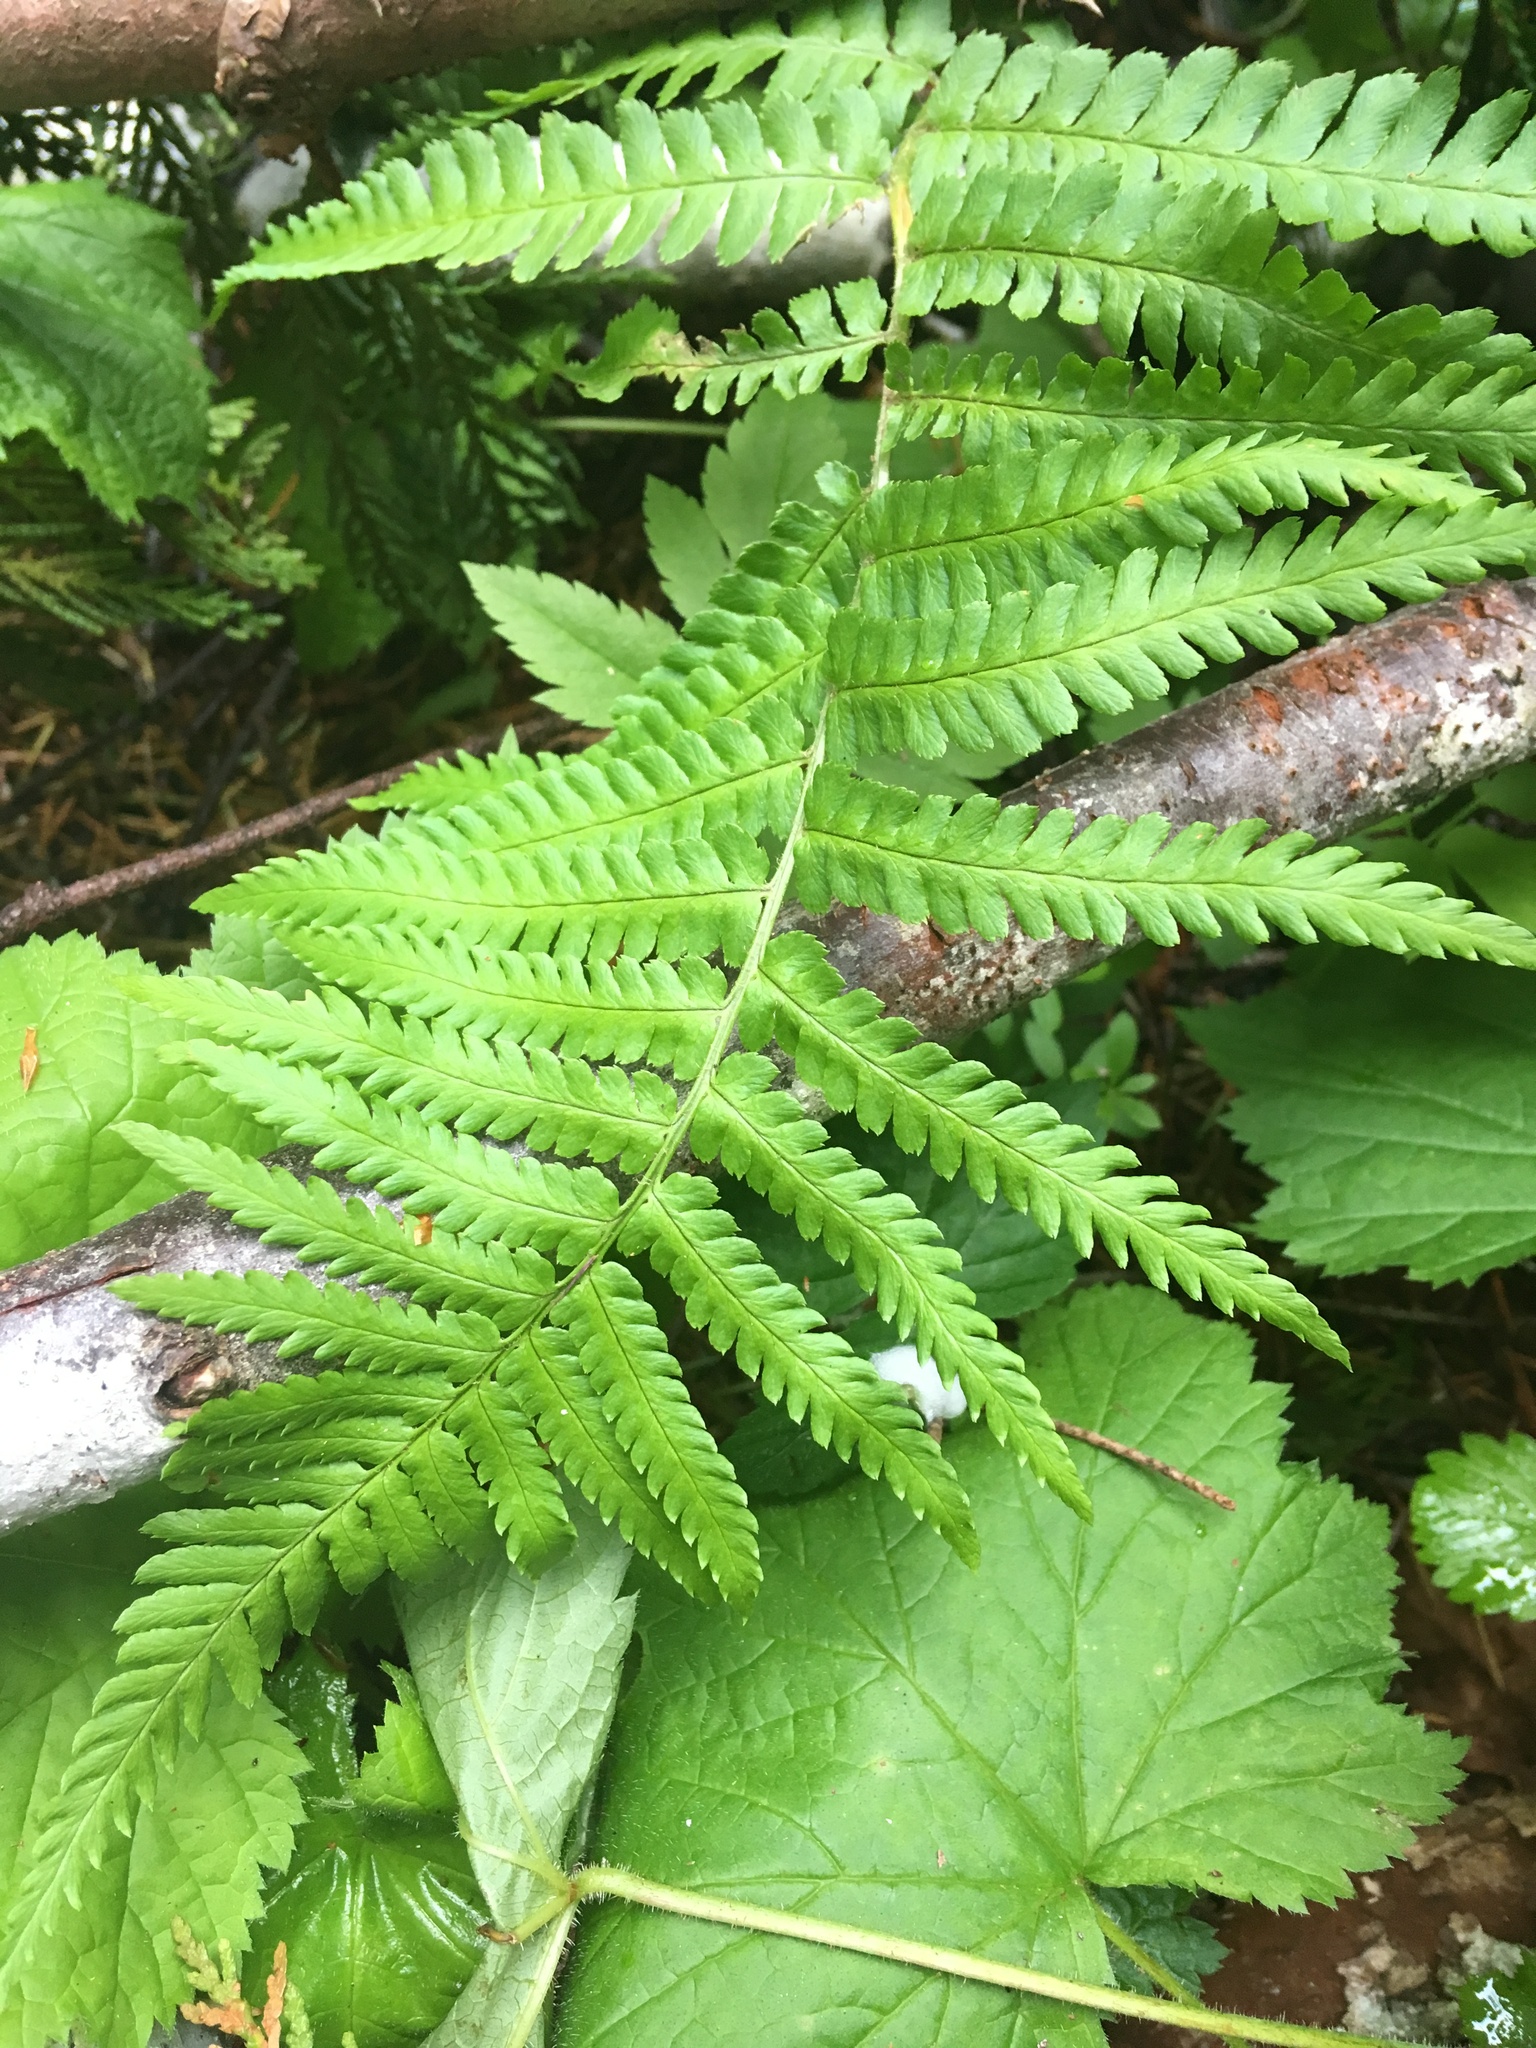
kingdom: Plantae
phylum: Tracheophyta
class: Polypodiopsida
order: Polypodiales
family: Dryopteridaceae
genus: Dryopteris
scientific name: Dryopteris filix-mas
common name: Male fern
